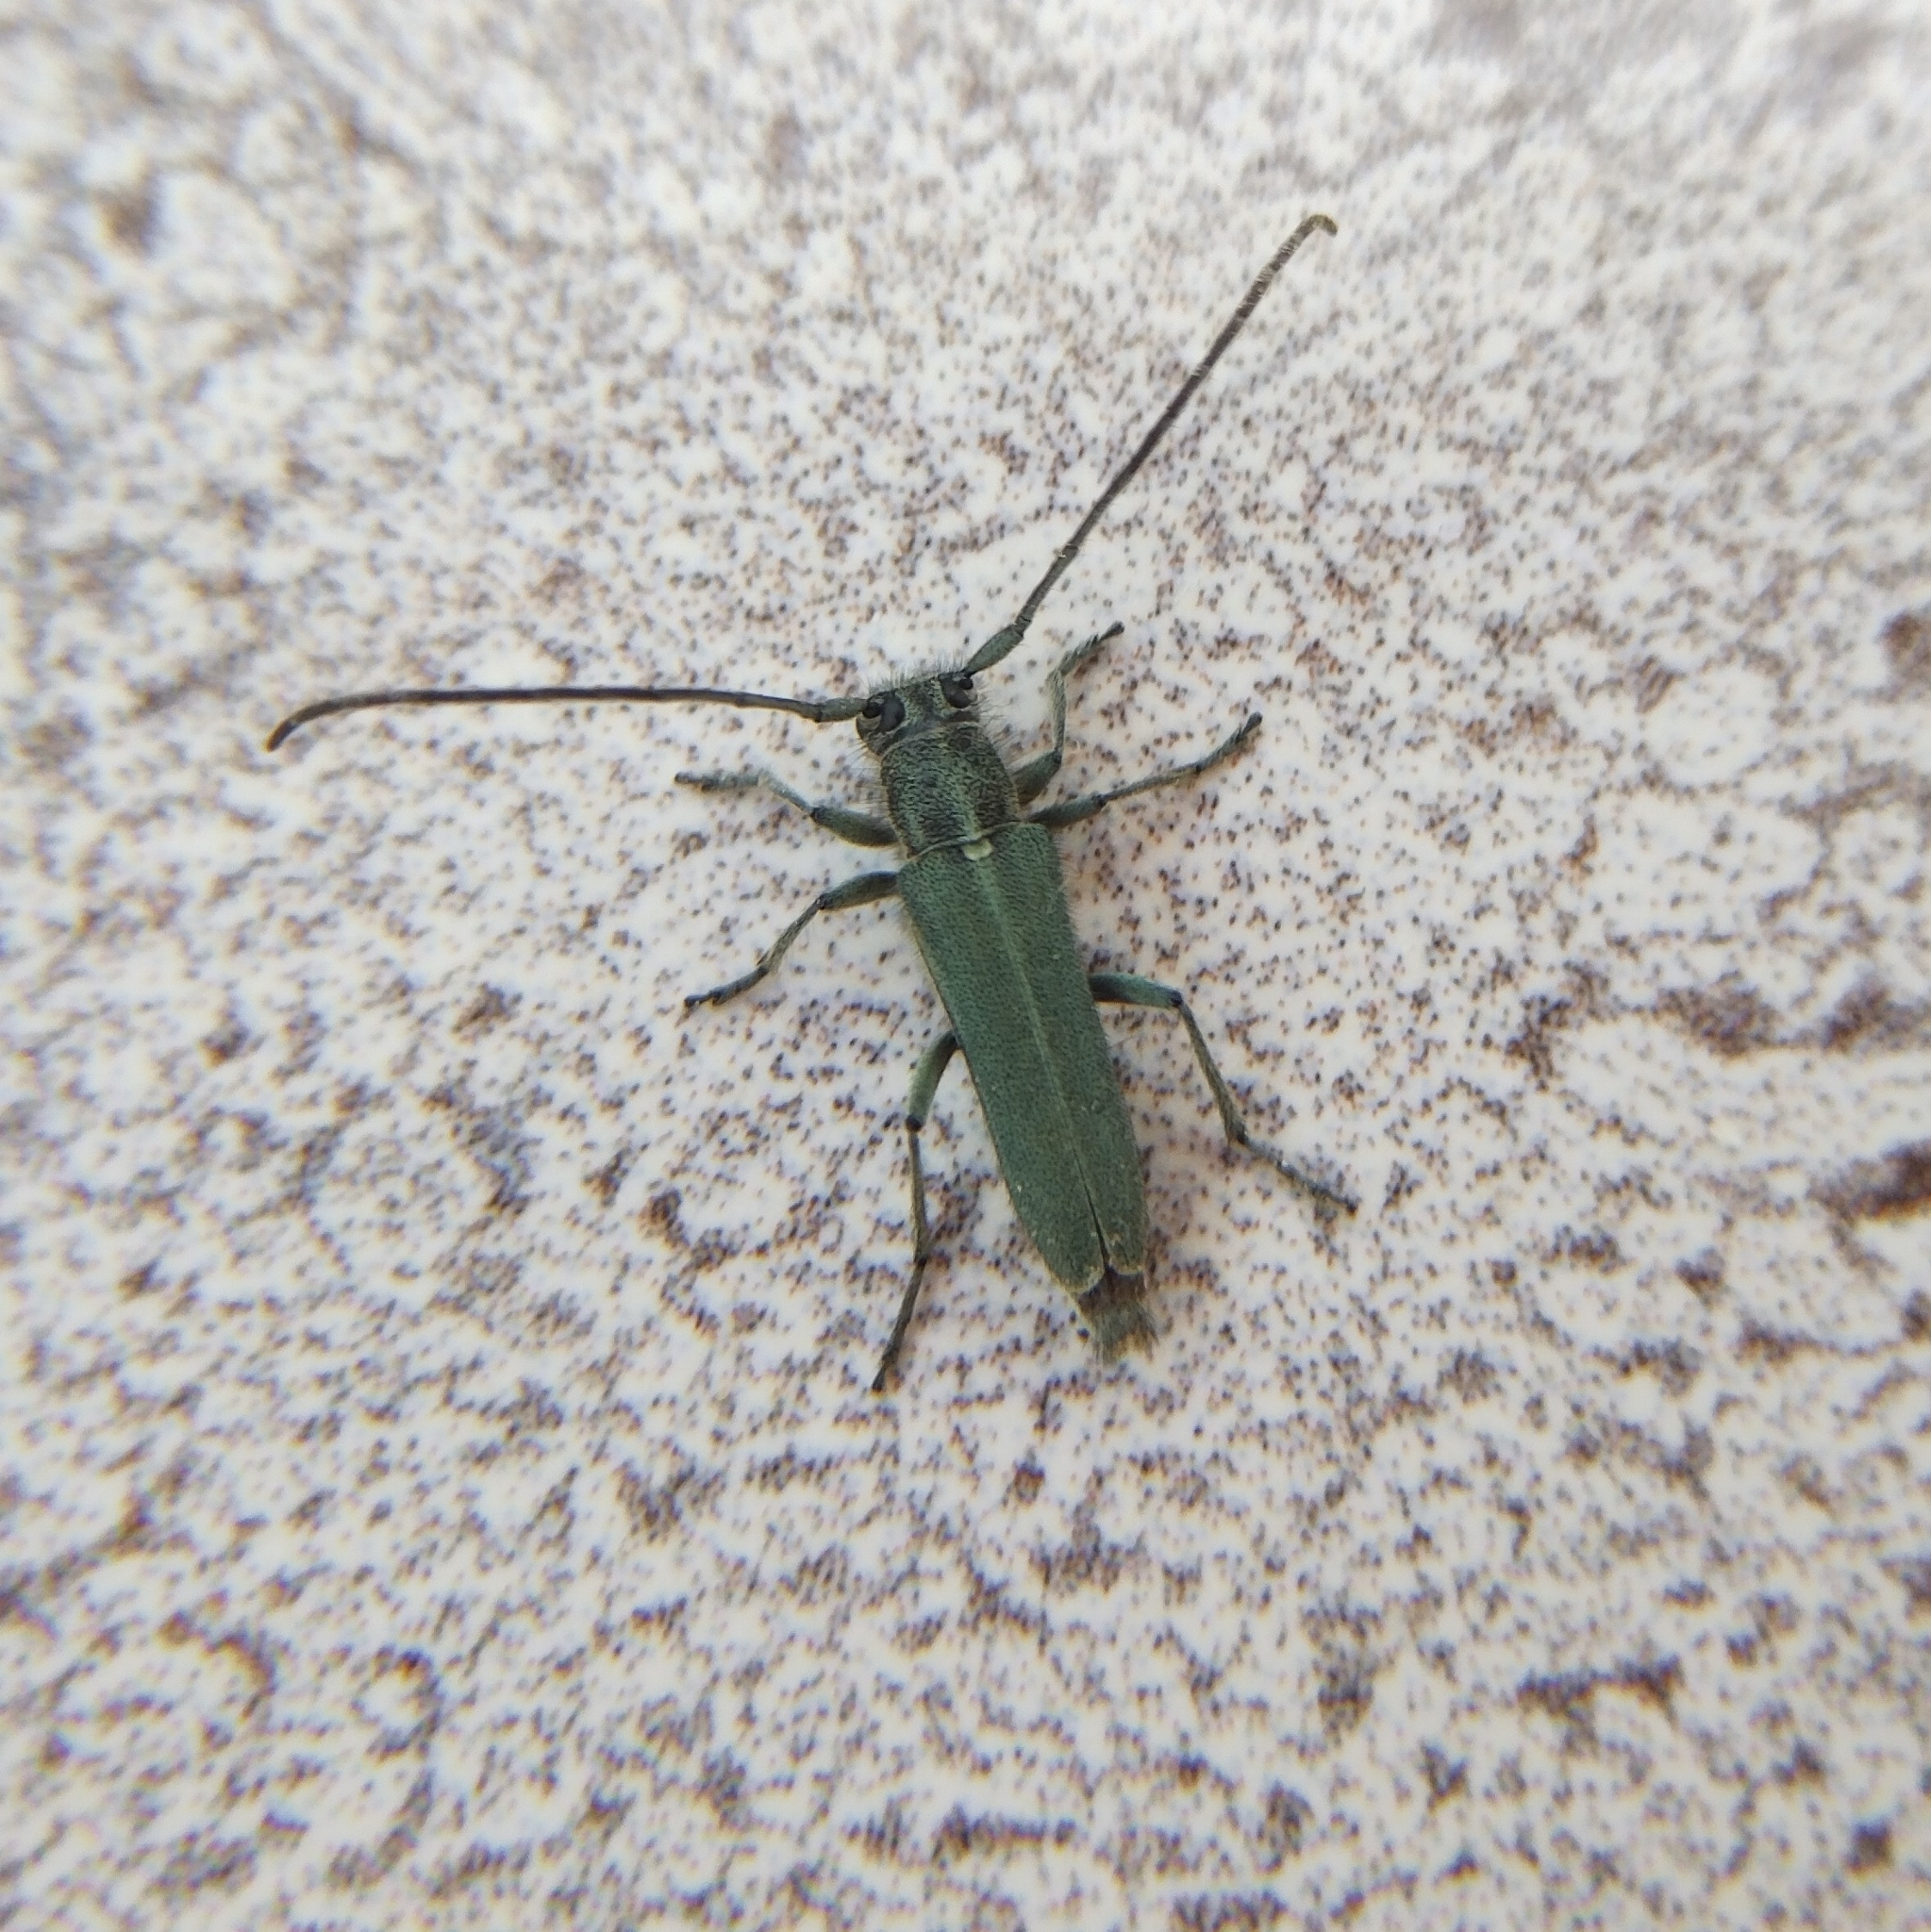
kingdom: Animalia
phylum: Arthropoda
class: Insecta
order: Coleoptera
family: Cerambycidae
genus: Phytoecia
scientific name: Phytoecia coerulescens
